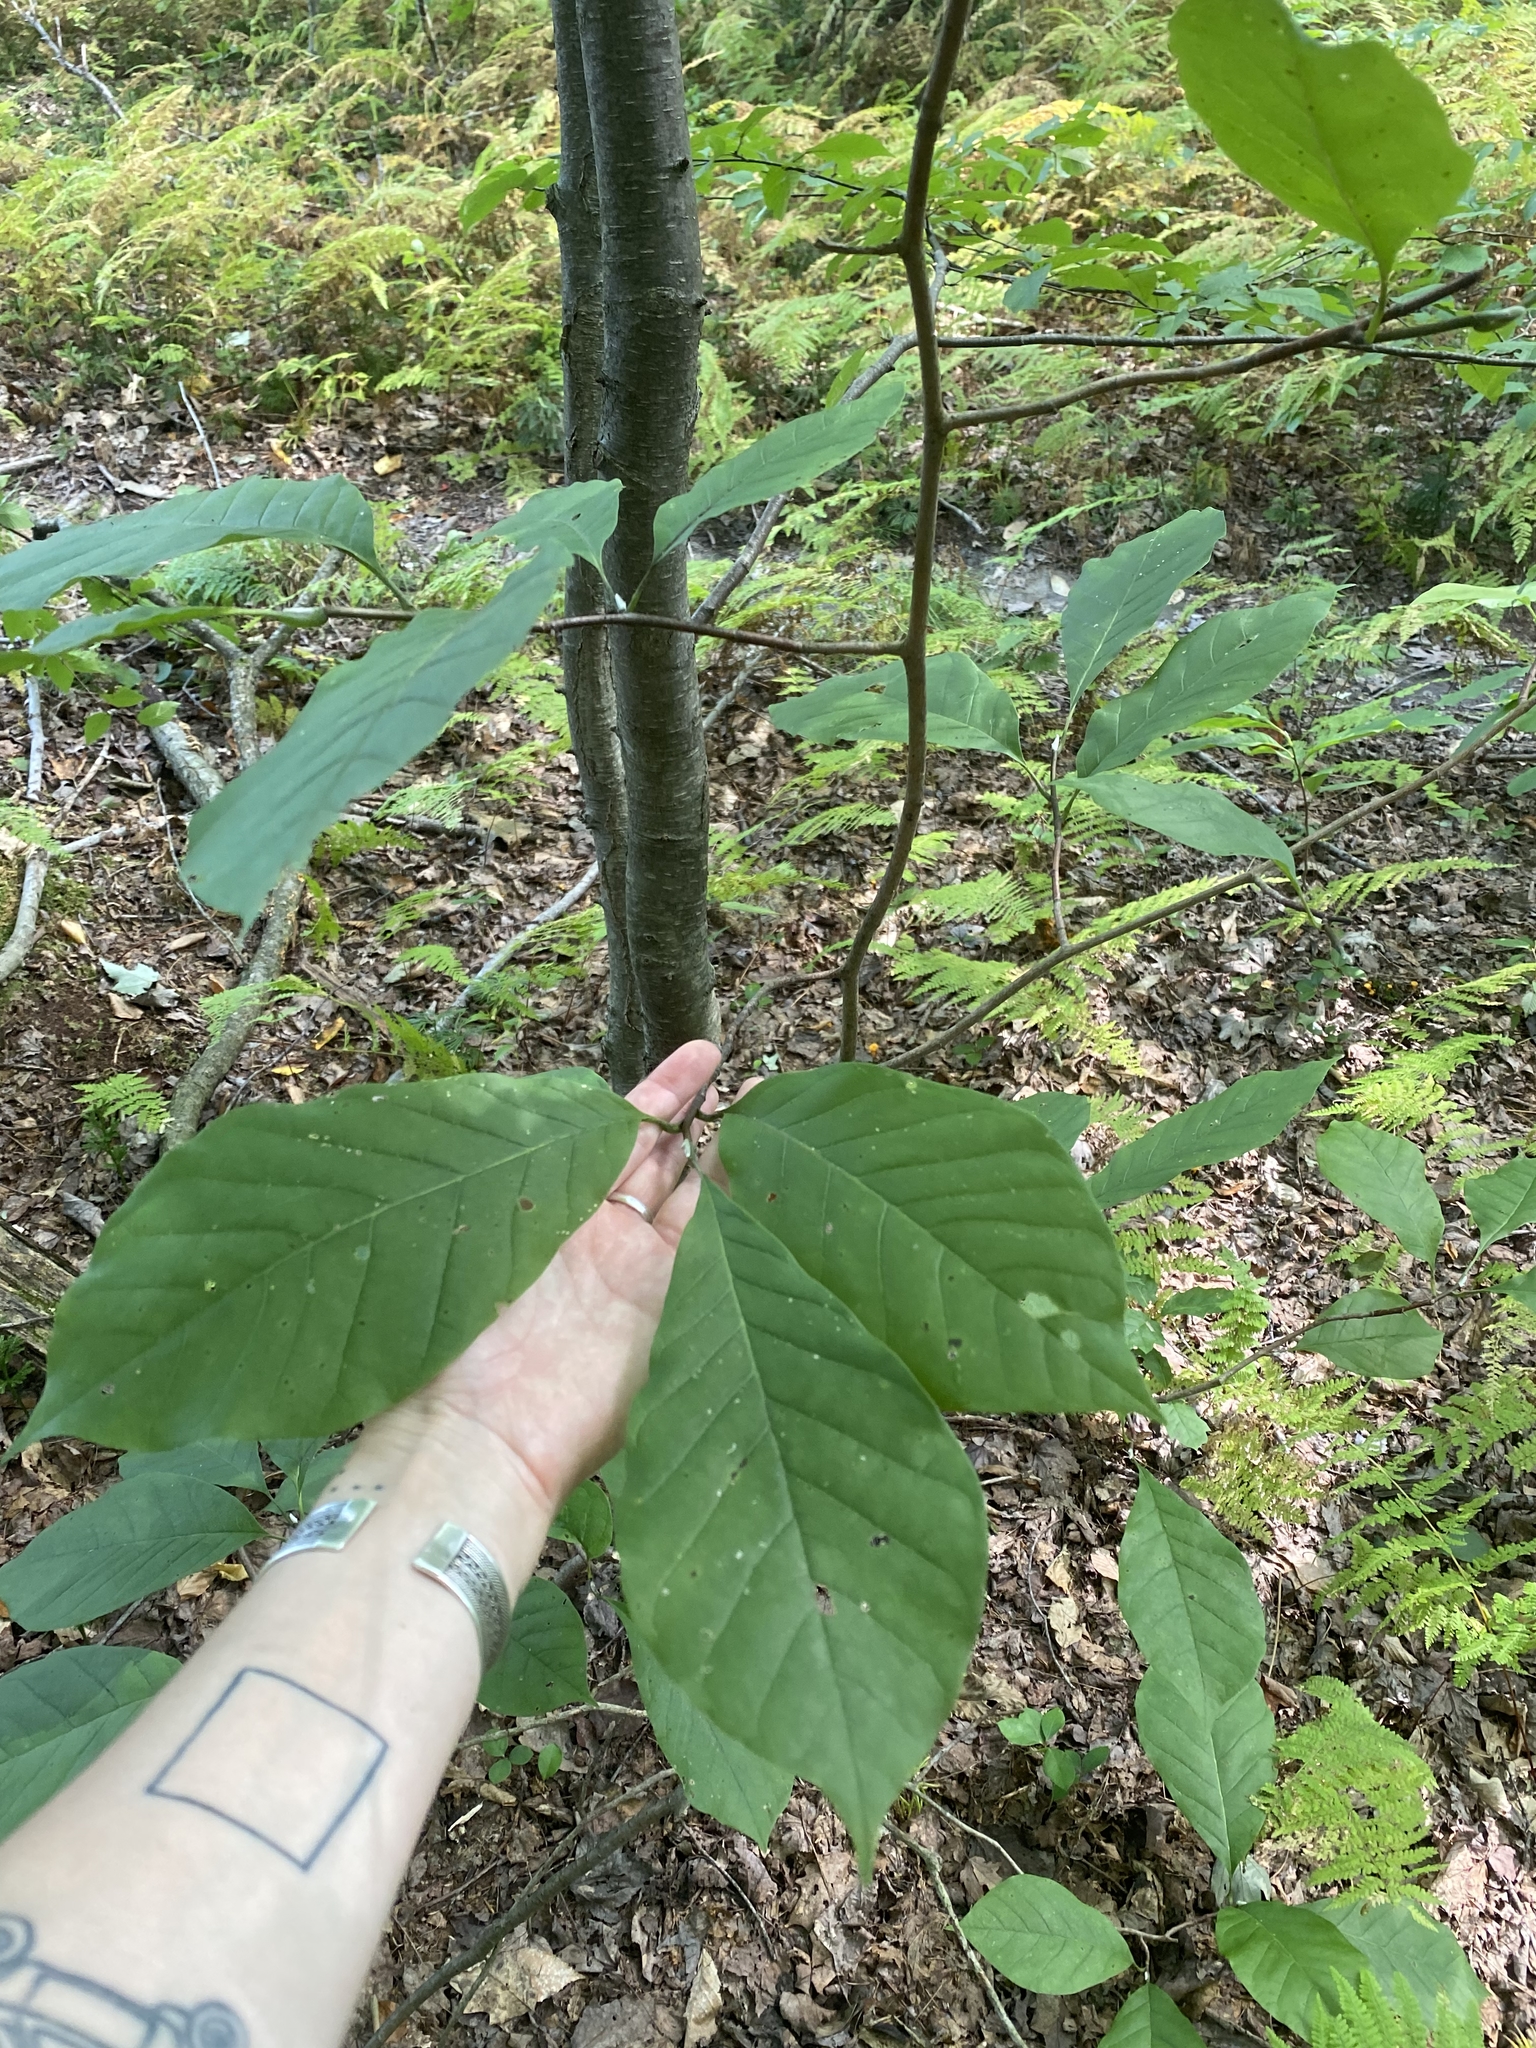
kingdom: Plantae
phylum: Tracheophyta
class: Magnoliopsida
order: Magnoliales
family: Magnoliaceae
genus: Magnolia
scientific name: Magnolia acuminata
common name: Cucumber magnolia
